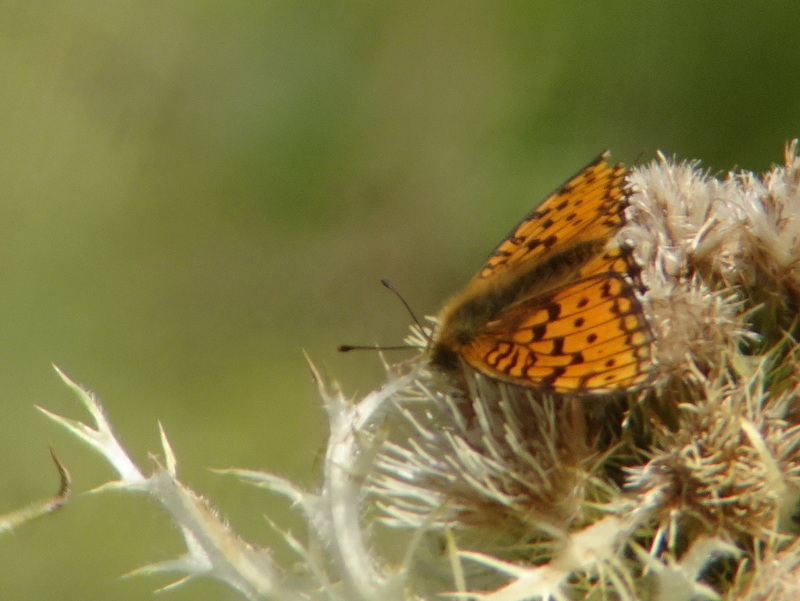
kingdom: Animalia
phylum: Arthropoda
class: Insecta
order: Lepidoptera
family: Nymphalidae
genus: Fabriciana
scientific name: Fabriciana niobe
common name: Niobe fritillary
